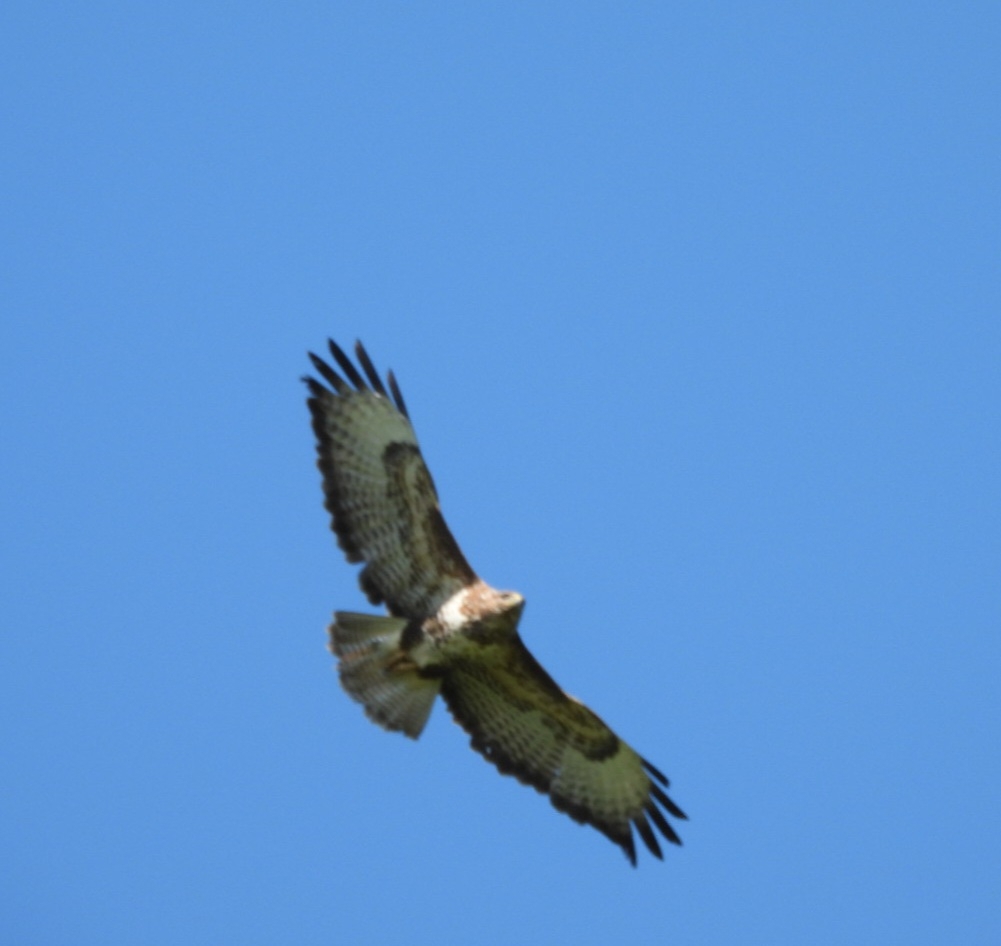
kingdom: Animalia
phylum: Chordata
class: Aves
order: Accipitriformes
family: Accipitridae
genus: Buteo
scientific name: Buteo buteo
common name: Common buzzard
